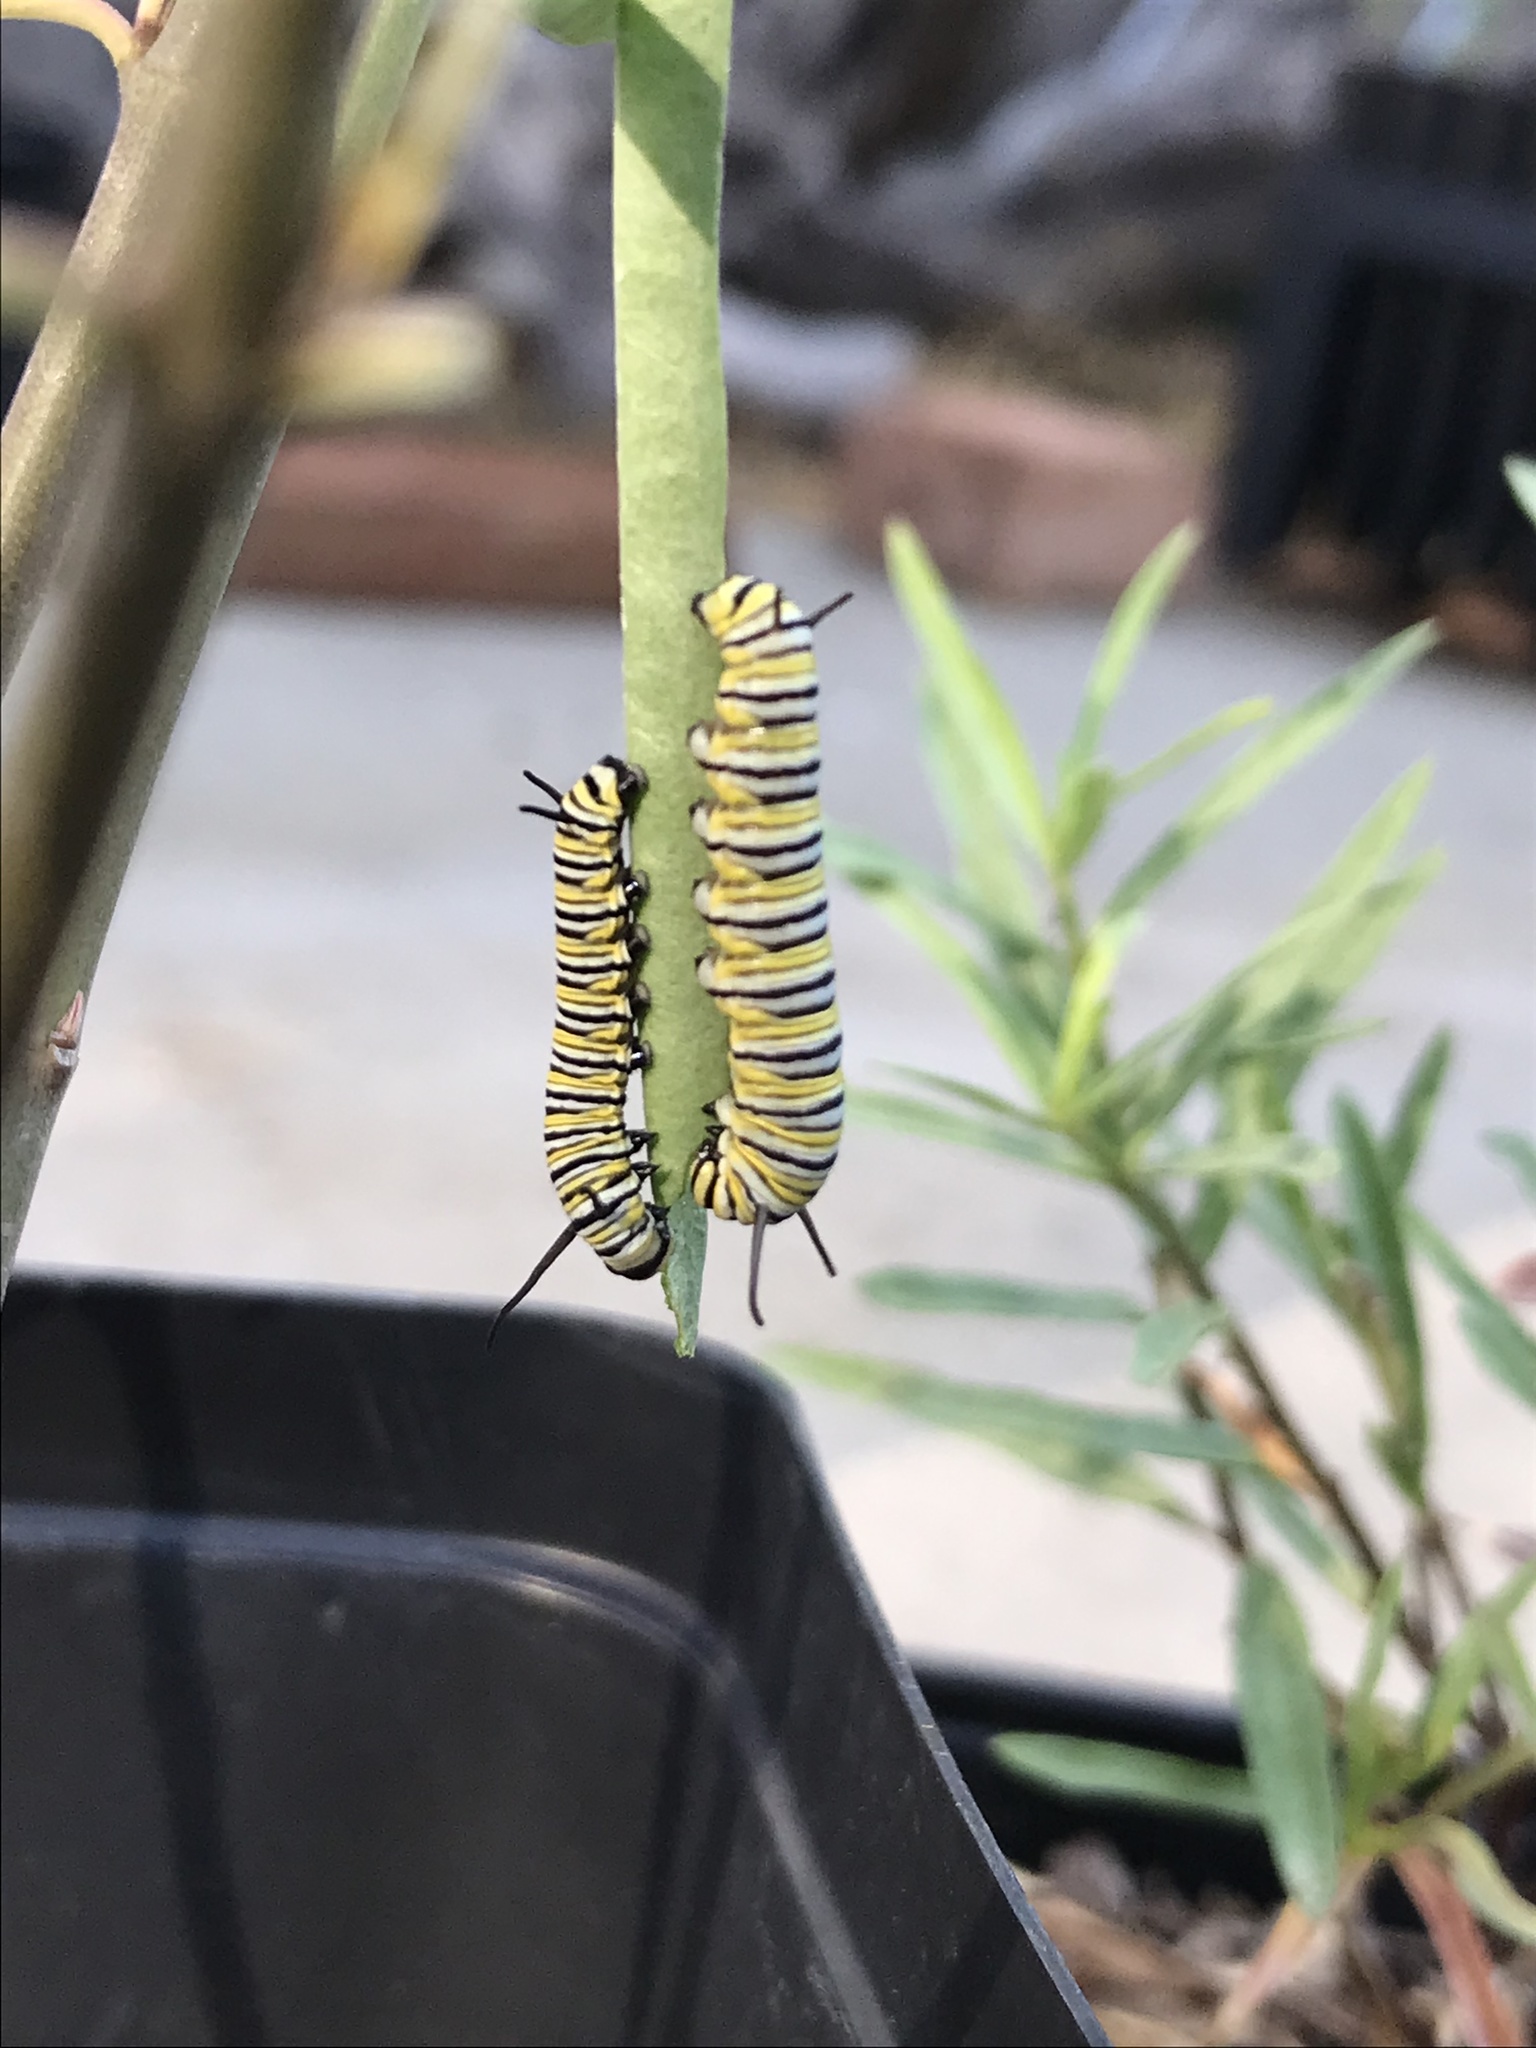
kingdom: Animalia
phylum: Arthropoda
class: Insecta
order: Lepidoptera
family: Nymphalidae
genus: Danaus
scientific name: Danaus plexippus
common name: Monarch
